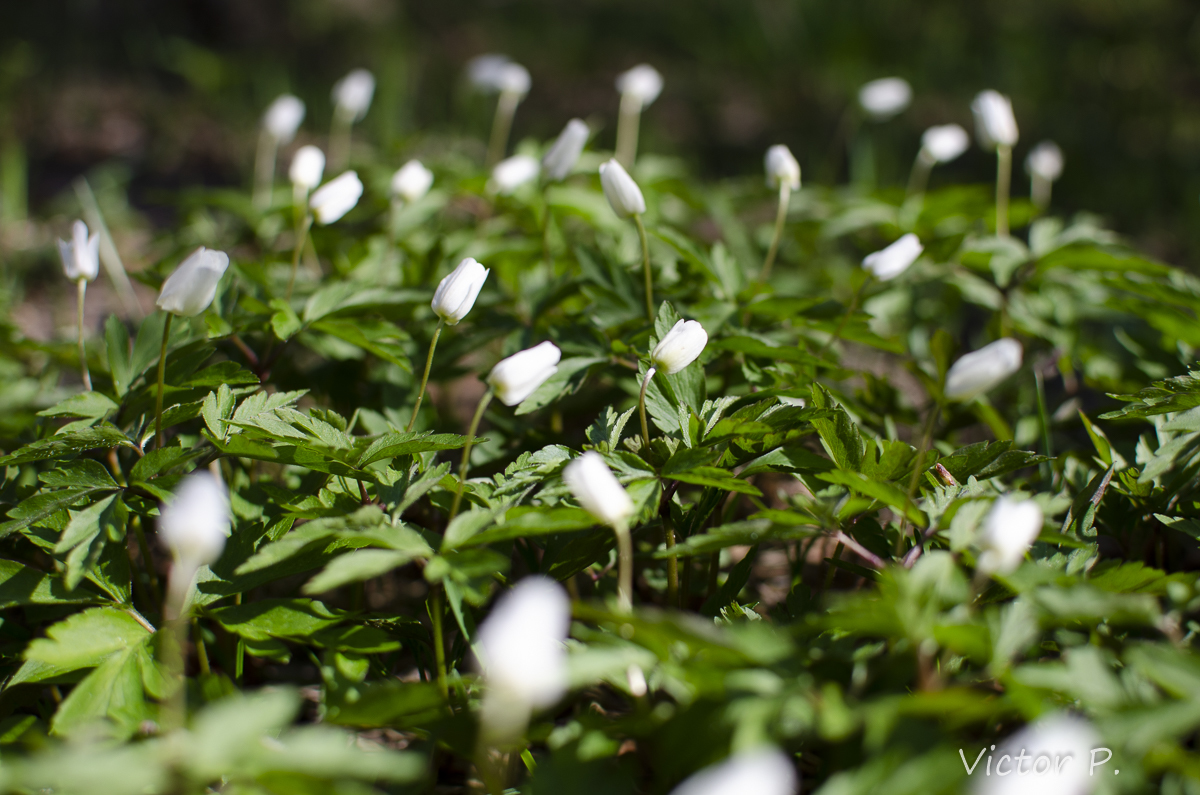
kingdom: Plantae
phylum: Tracheophyta
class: Magnoliopsida
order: Ranunculales
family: Ranunculaceae
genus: Anemone
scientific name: Anemone nemorosa
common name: Wood anemone
